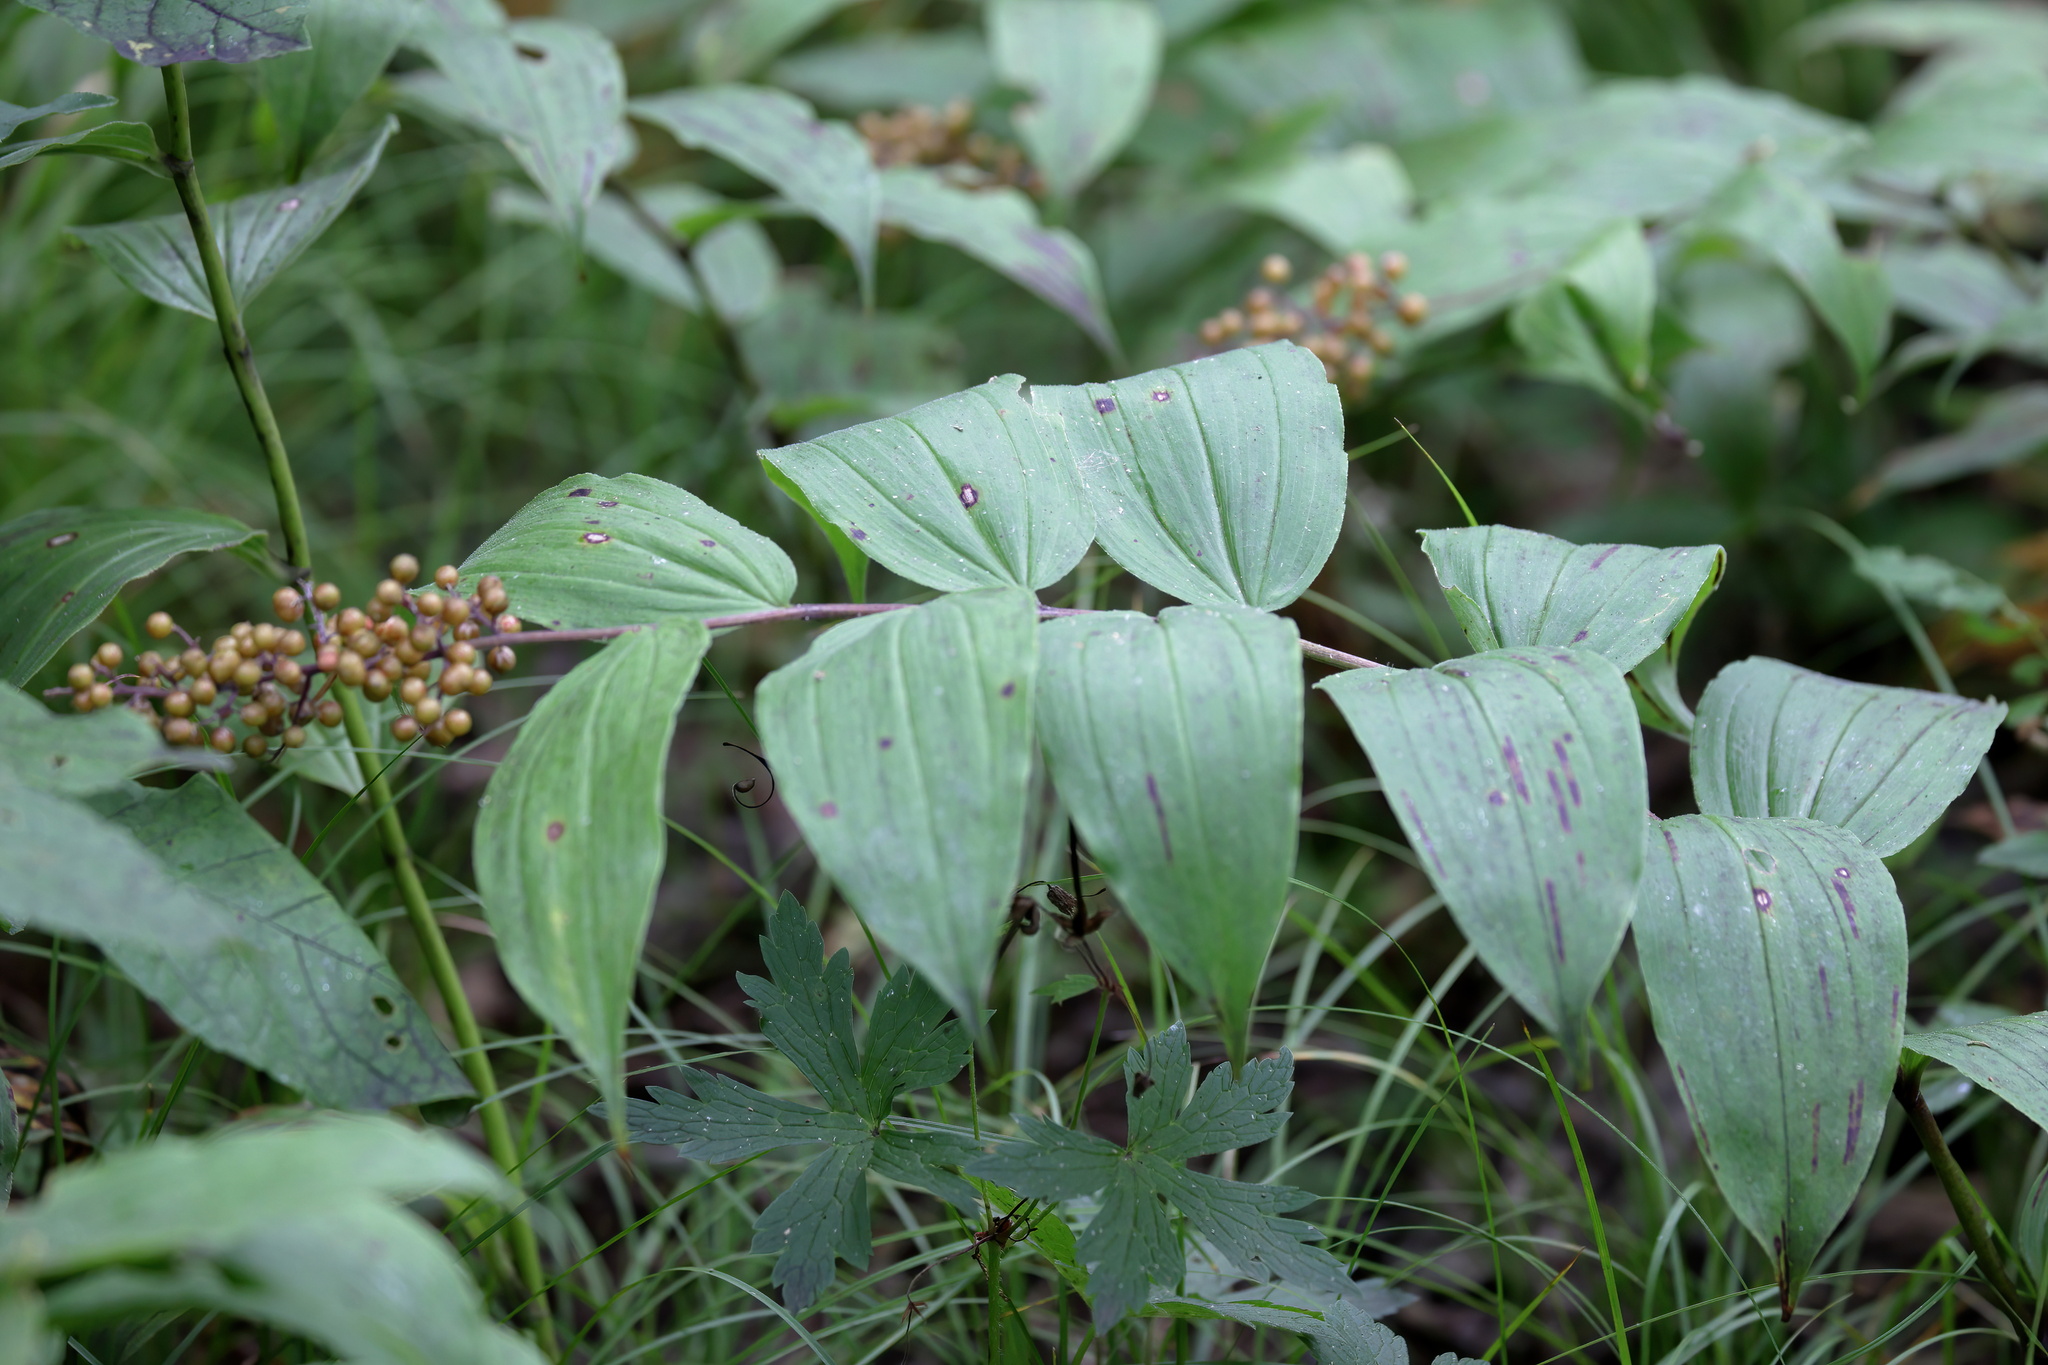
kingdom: Plantae
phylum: Tracheophyta
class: Liliopsida
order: Asparagales
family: Asparagaceae
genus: Maianthemum
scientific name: Maianthemum racemosum
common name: False spikenard
